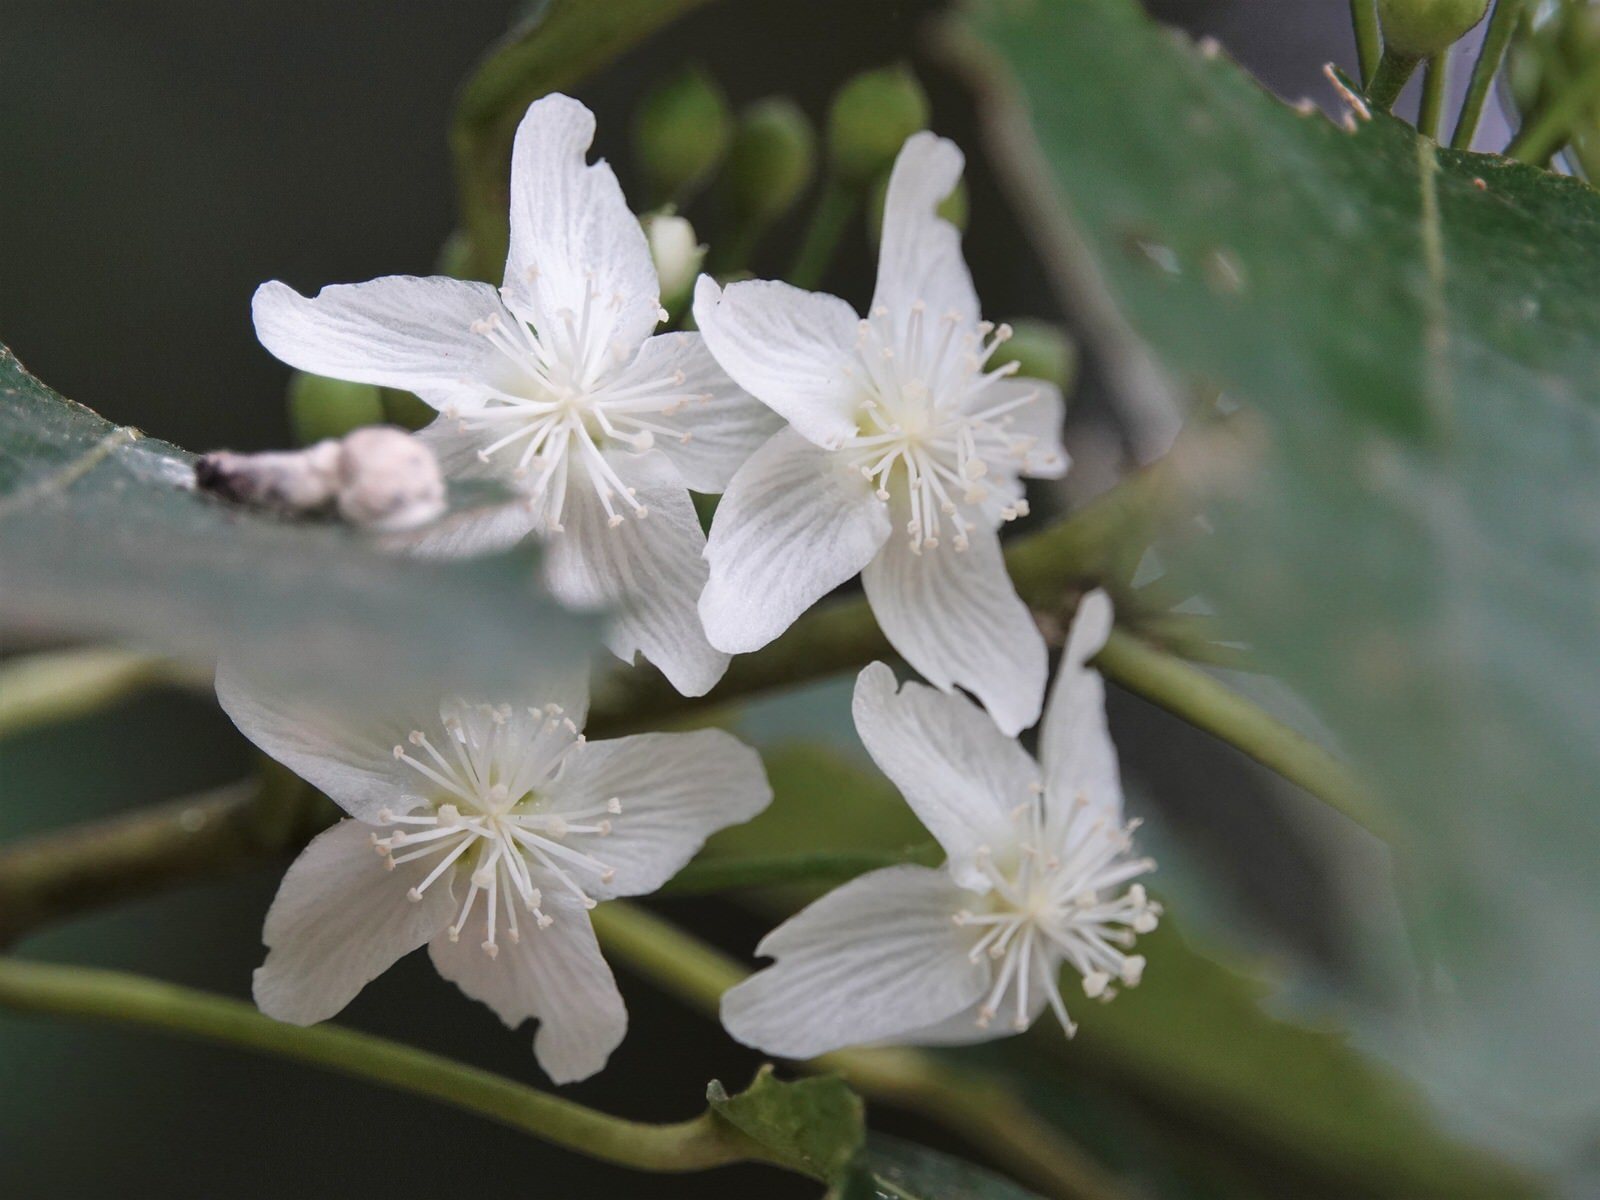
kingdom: Plantae
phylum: Tracheophyta
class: Magnoliopsida
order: Malvales
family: Malvaceae
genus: Hoheria
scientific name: Hoheria populnea
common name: Lacebark
